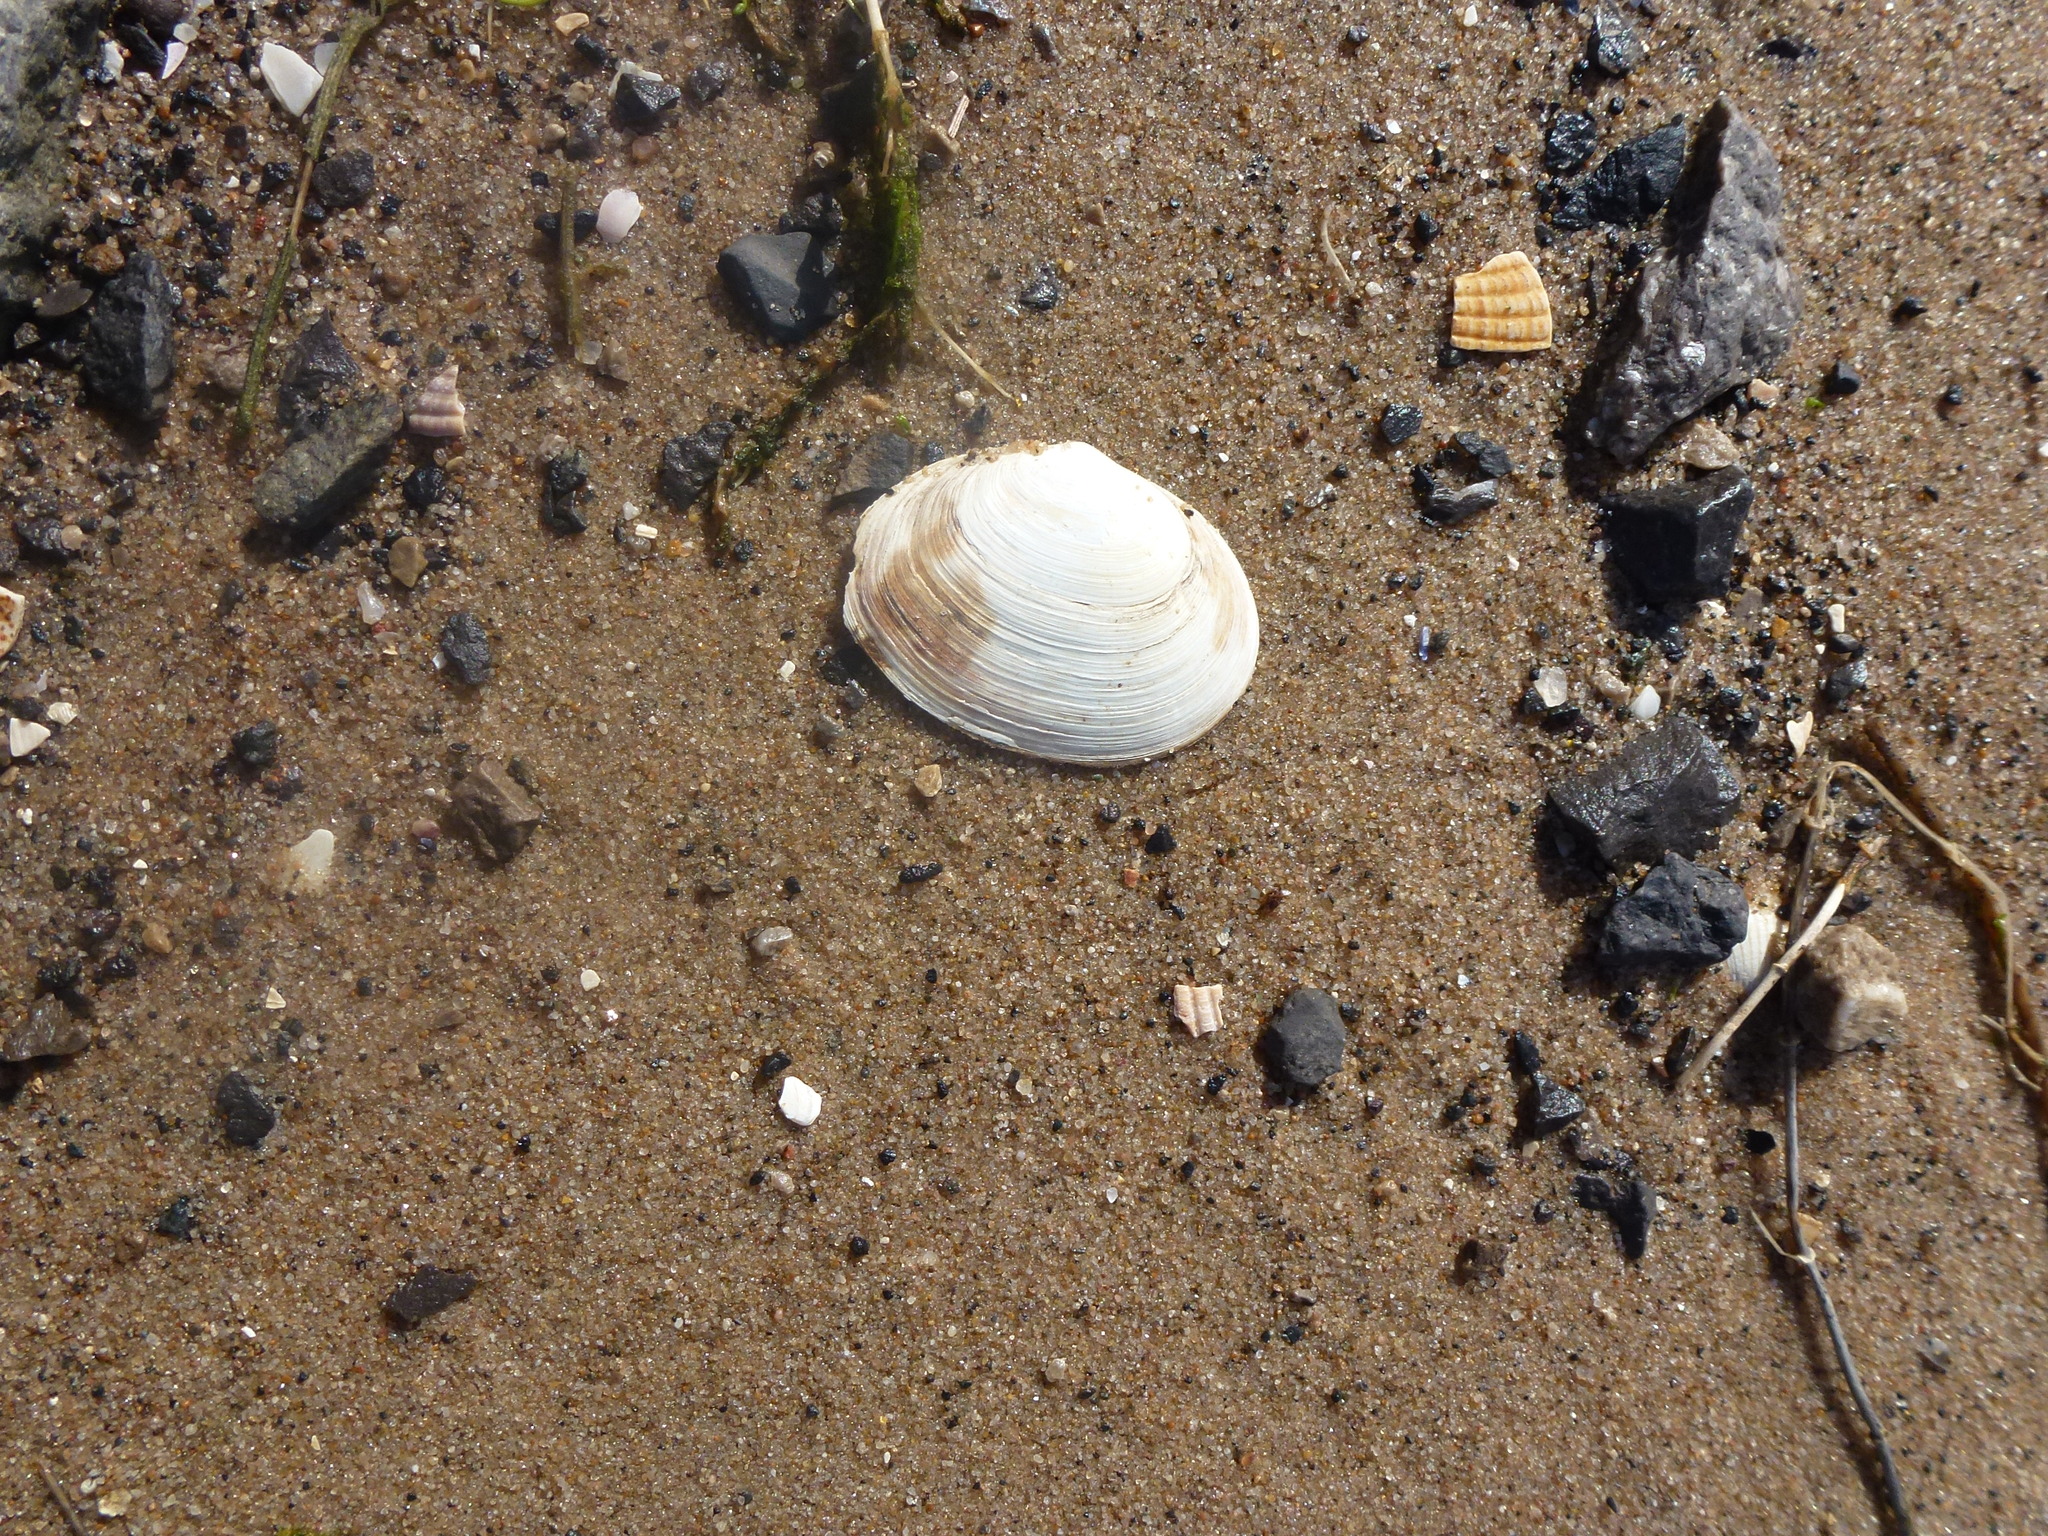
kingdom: Animalia
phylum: Mollusca
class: Bivalvia
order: Cardiida
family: Semelidae
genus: Scrobicularia
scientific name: Scrobicularia plana
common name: Peppery furrow shell
